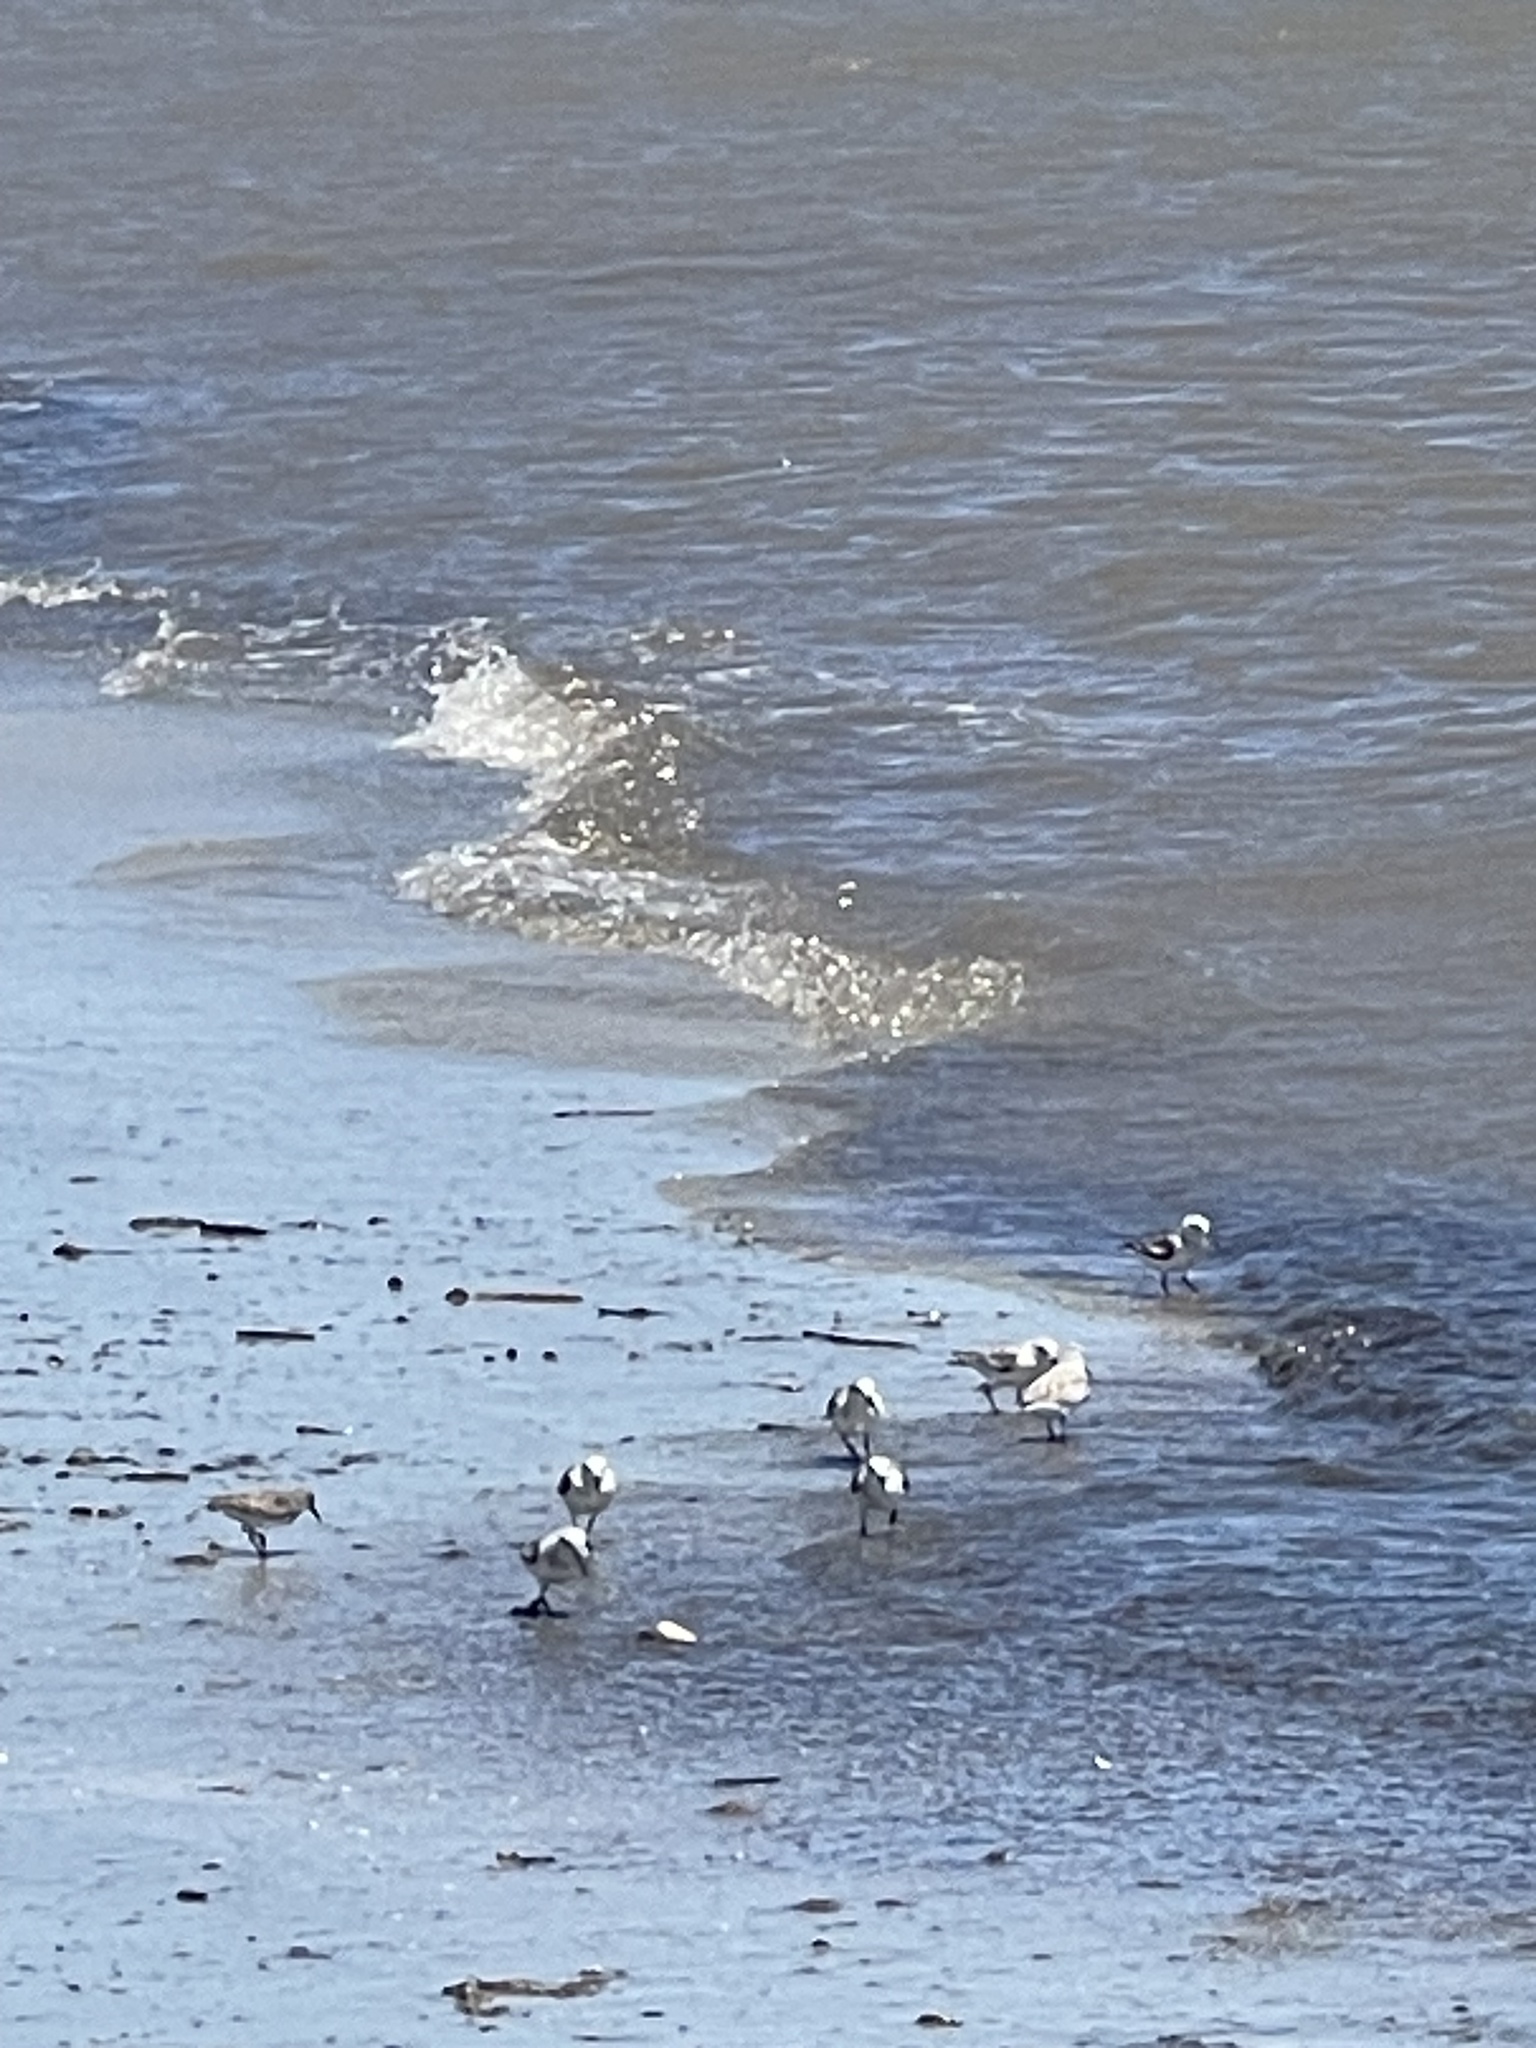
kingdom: Animalia
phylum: Chordata
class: Aves
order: Charadriiformes
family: Scolopacidae
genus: Calidris
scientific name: Calidris alba
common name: Sanderling
